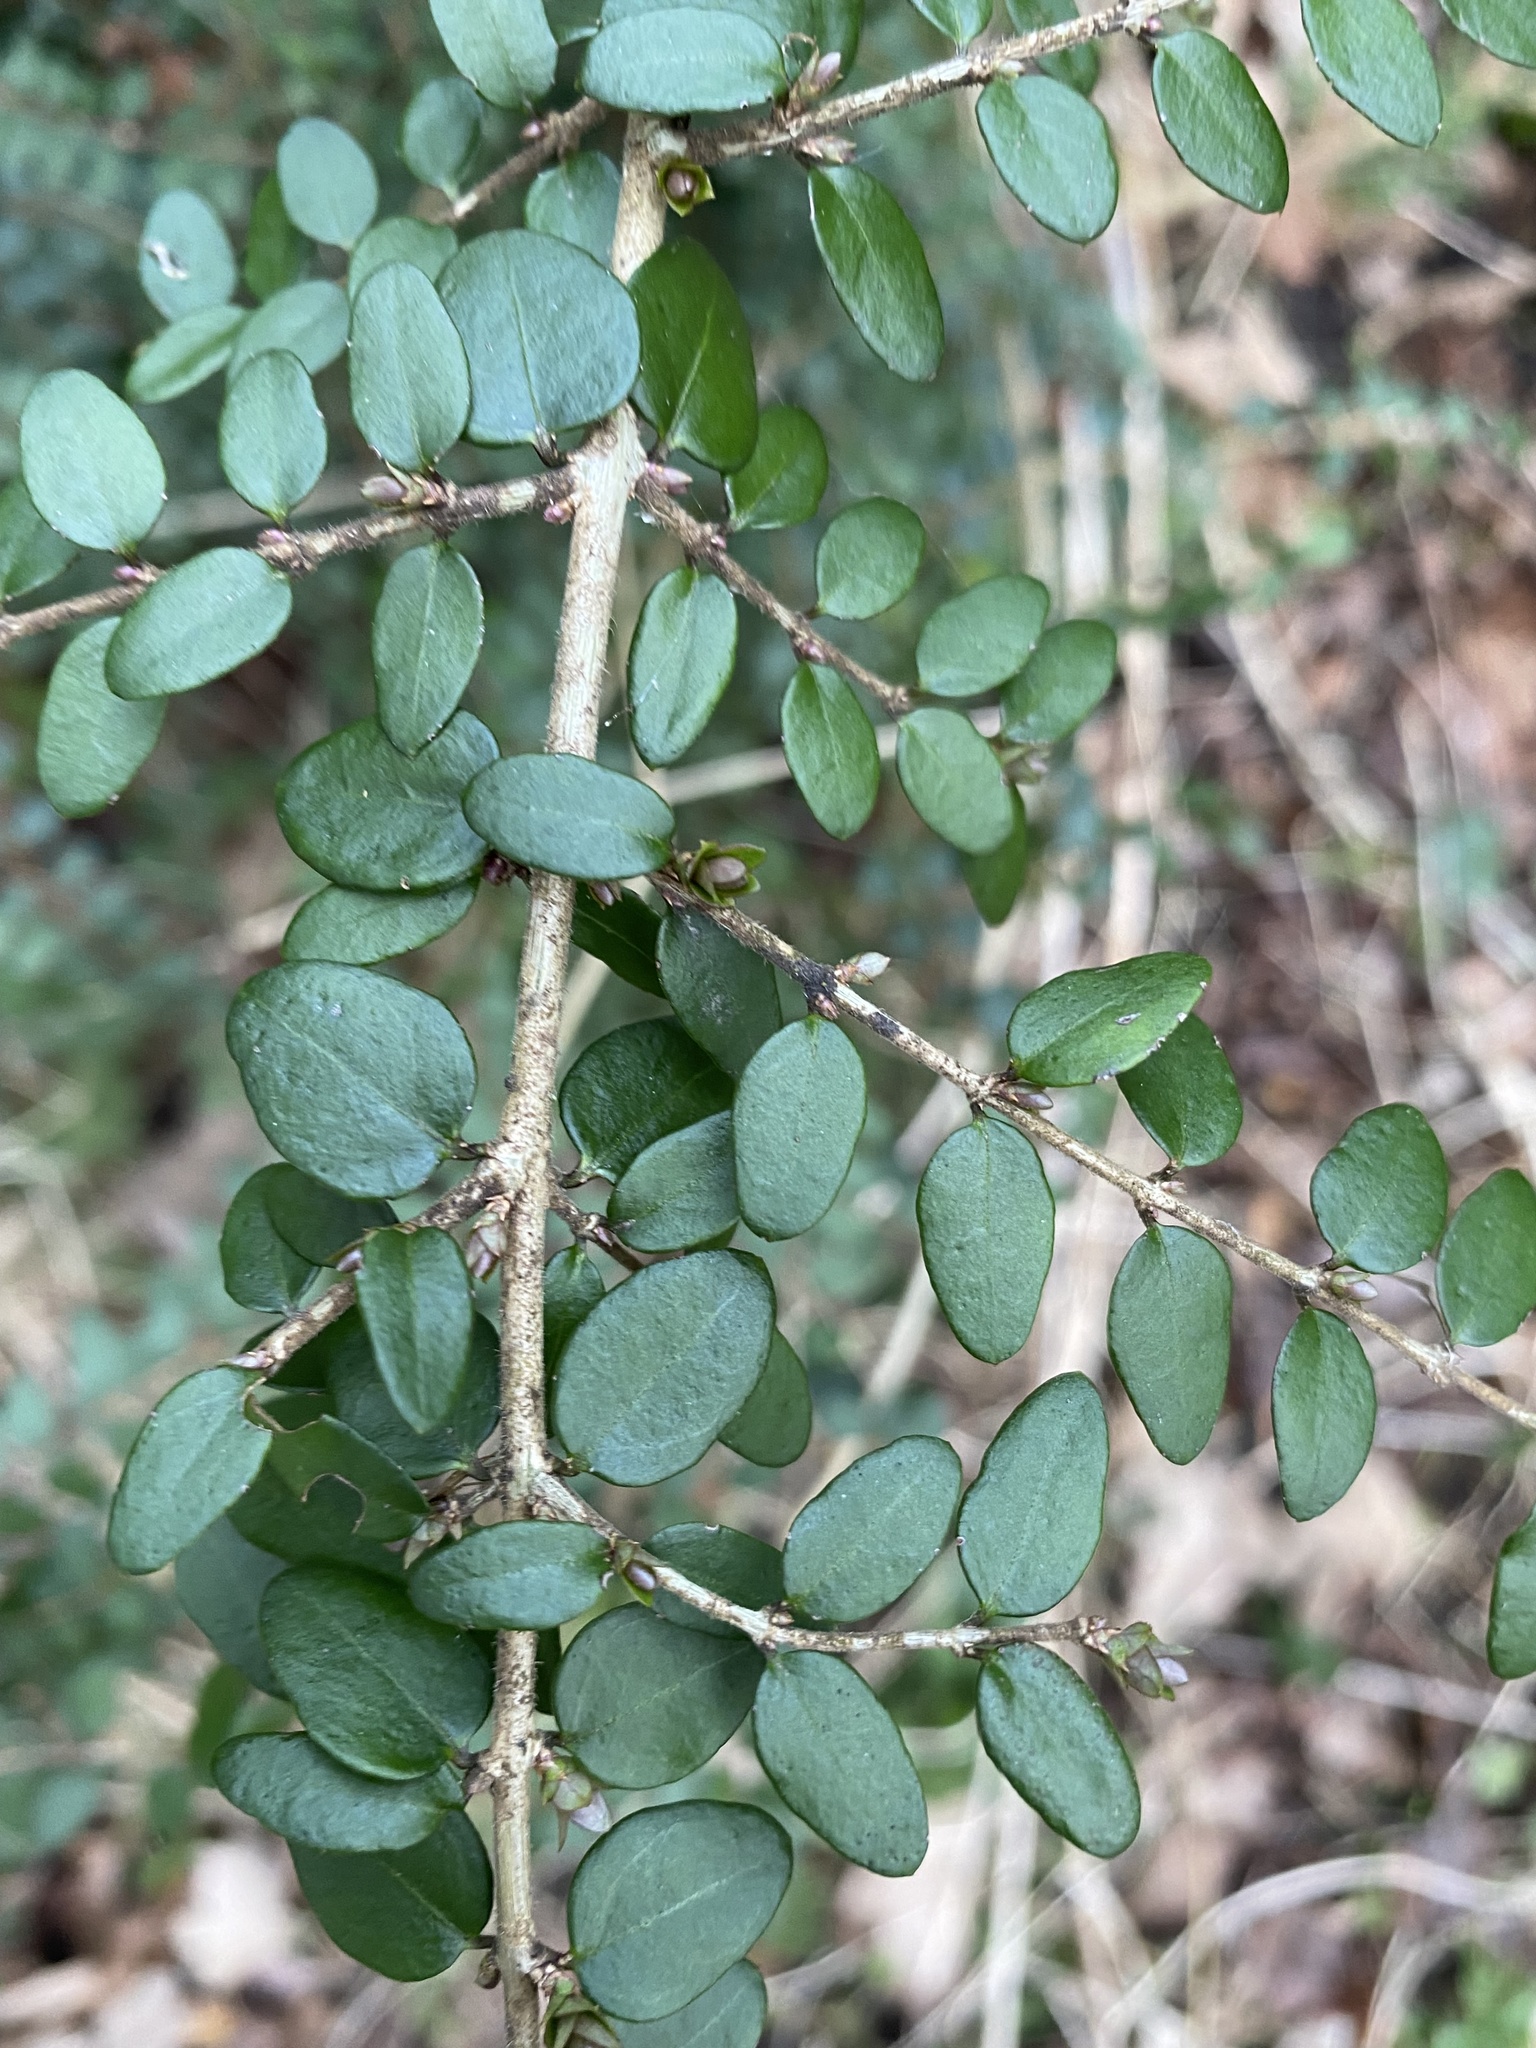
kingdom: Plantae
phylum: Tracheophyta
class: Magnoliopsida
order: Dipsacales
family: Caprifoliaceae
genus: Lonicera
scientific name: Lonicera ligustrina
